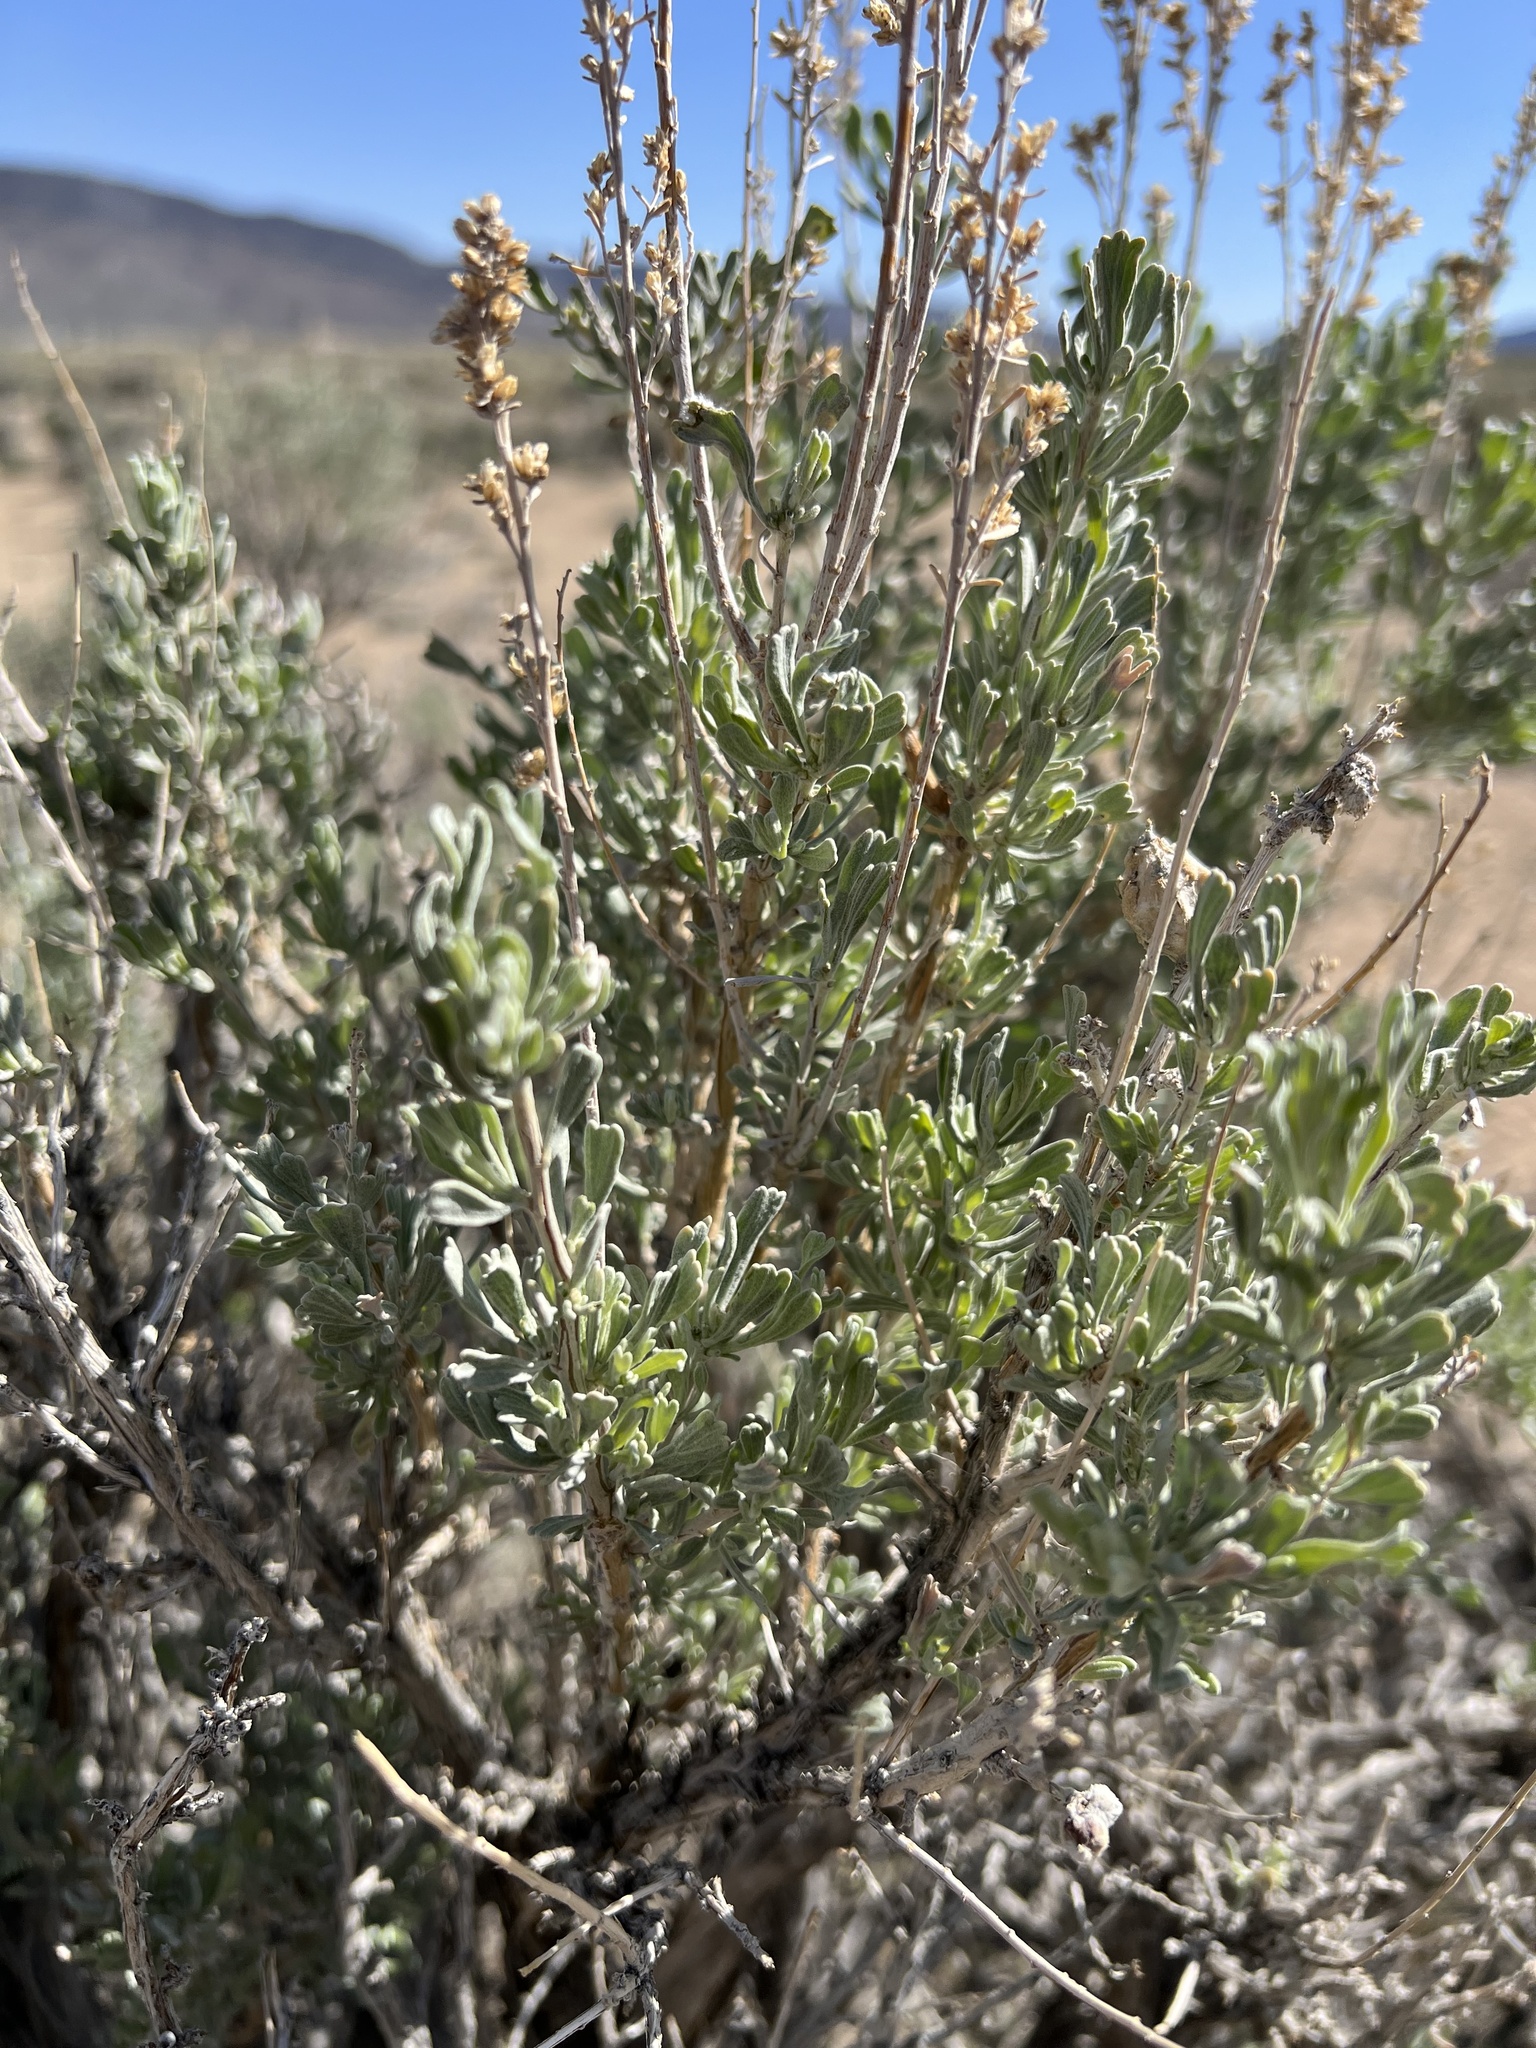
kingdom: Plantae
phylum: Tracheophyta
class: Magnoliopsida
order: Asterales
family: Asteraceae
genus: Artemisia
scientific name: Artemisia tridentata
